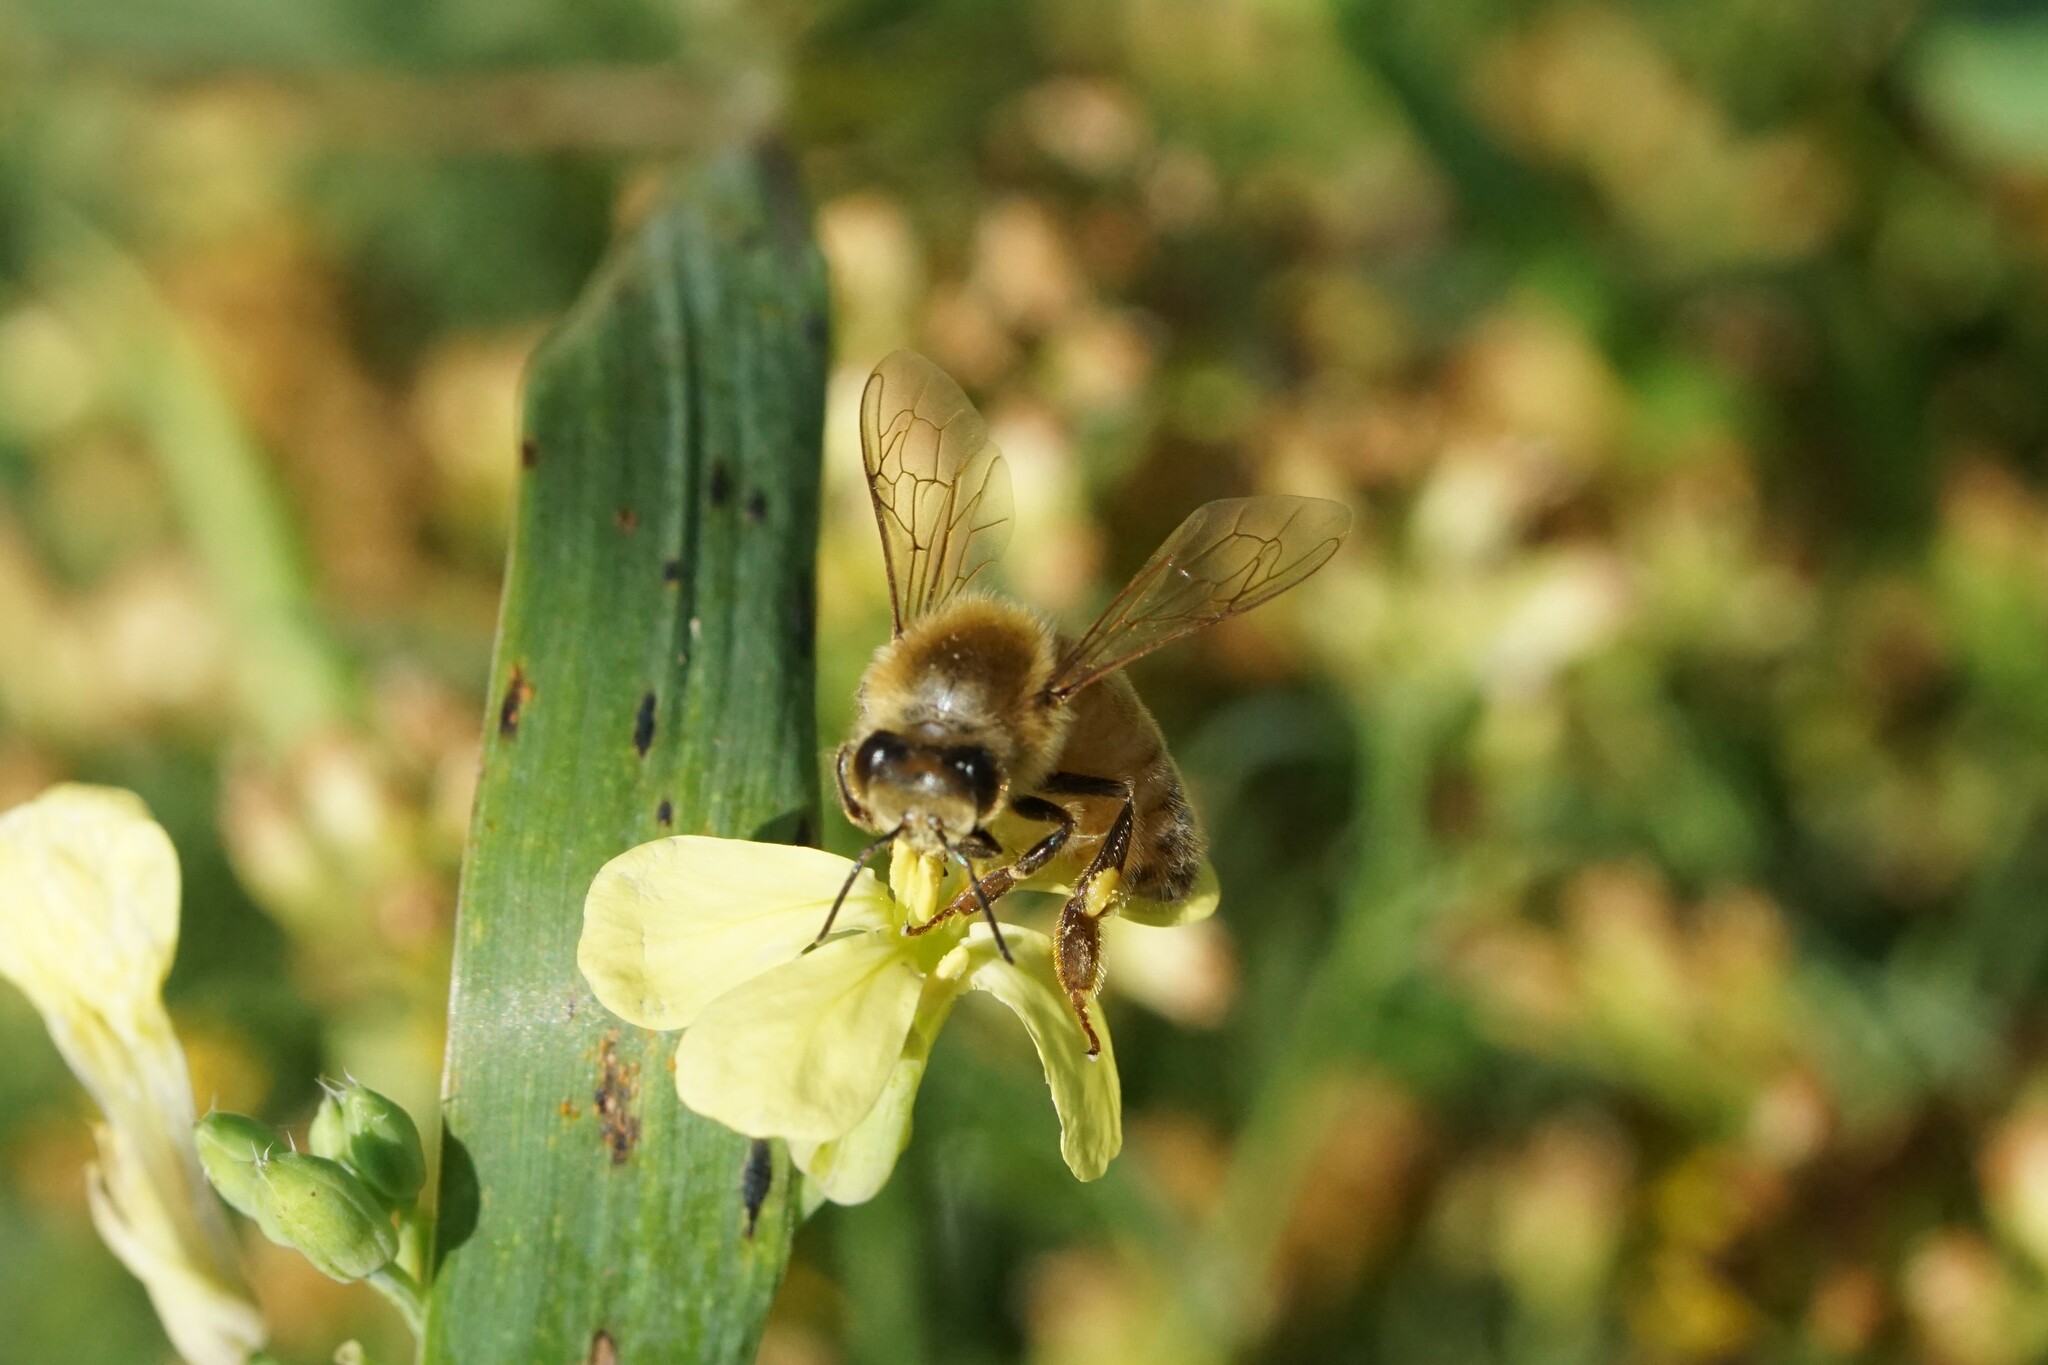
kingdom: Animalia
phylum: Arthropoda
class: Insecta
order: Hymenoptera
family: Apidae
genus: Apis
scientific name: Apis mellifera
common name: Honey bee
